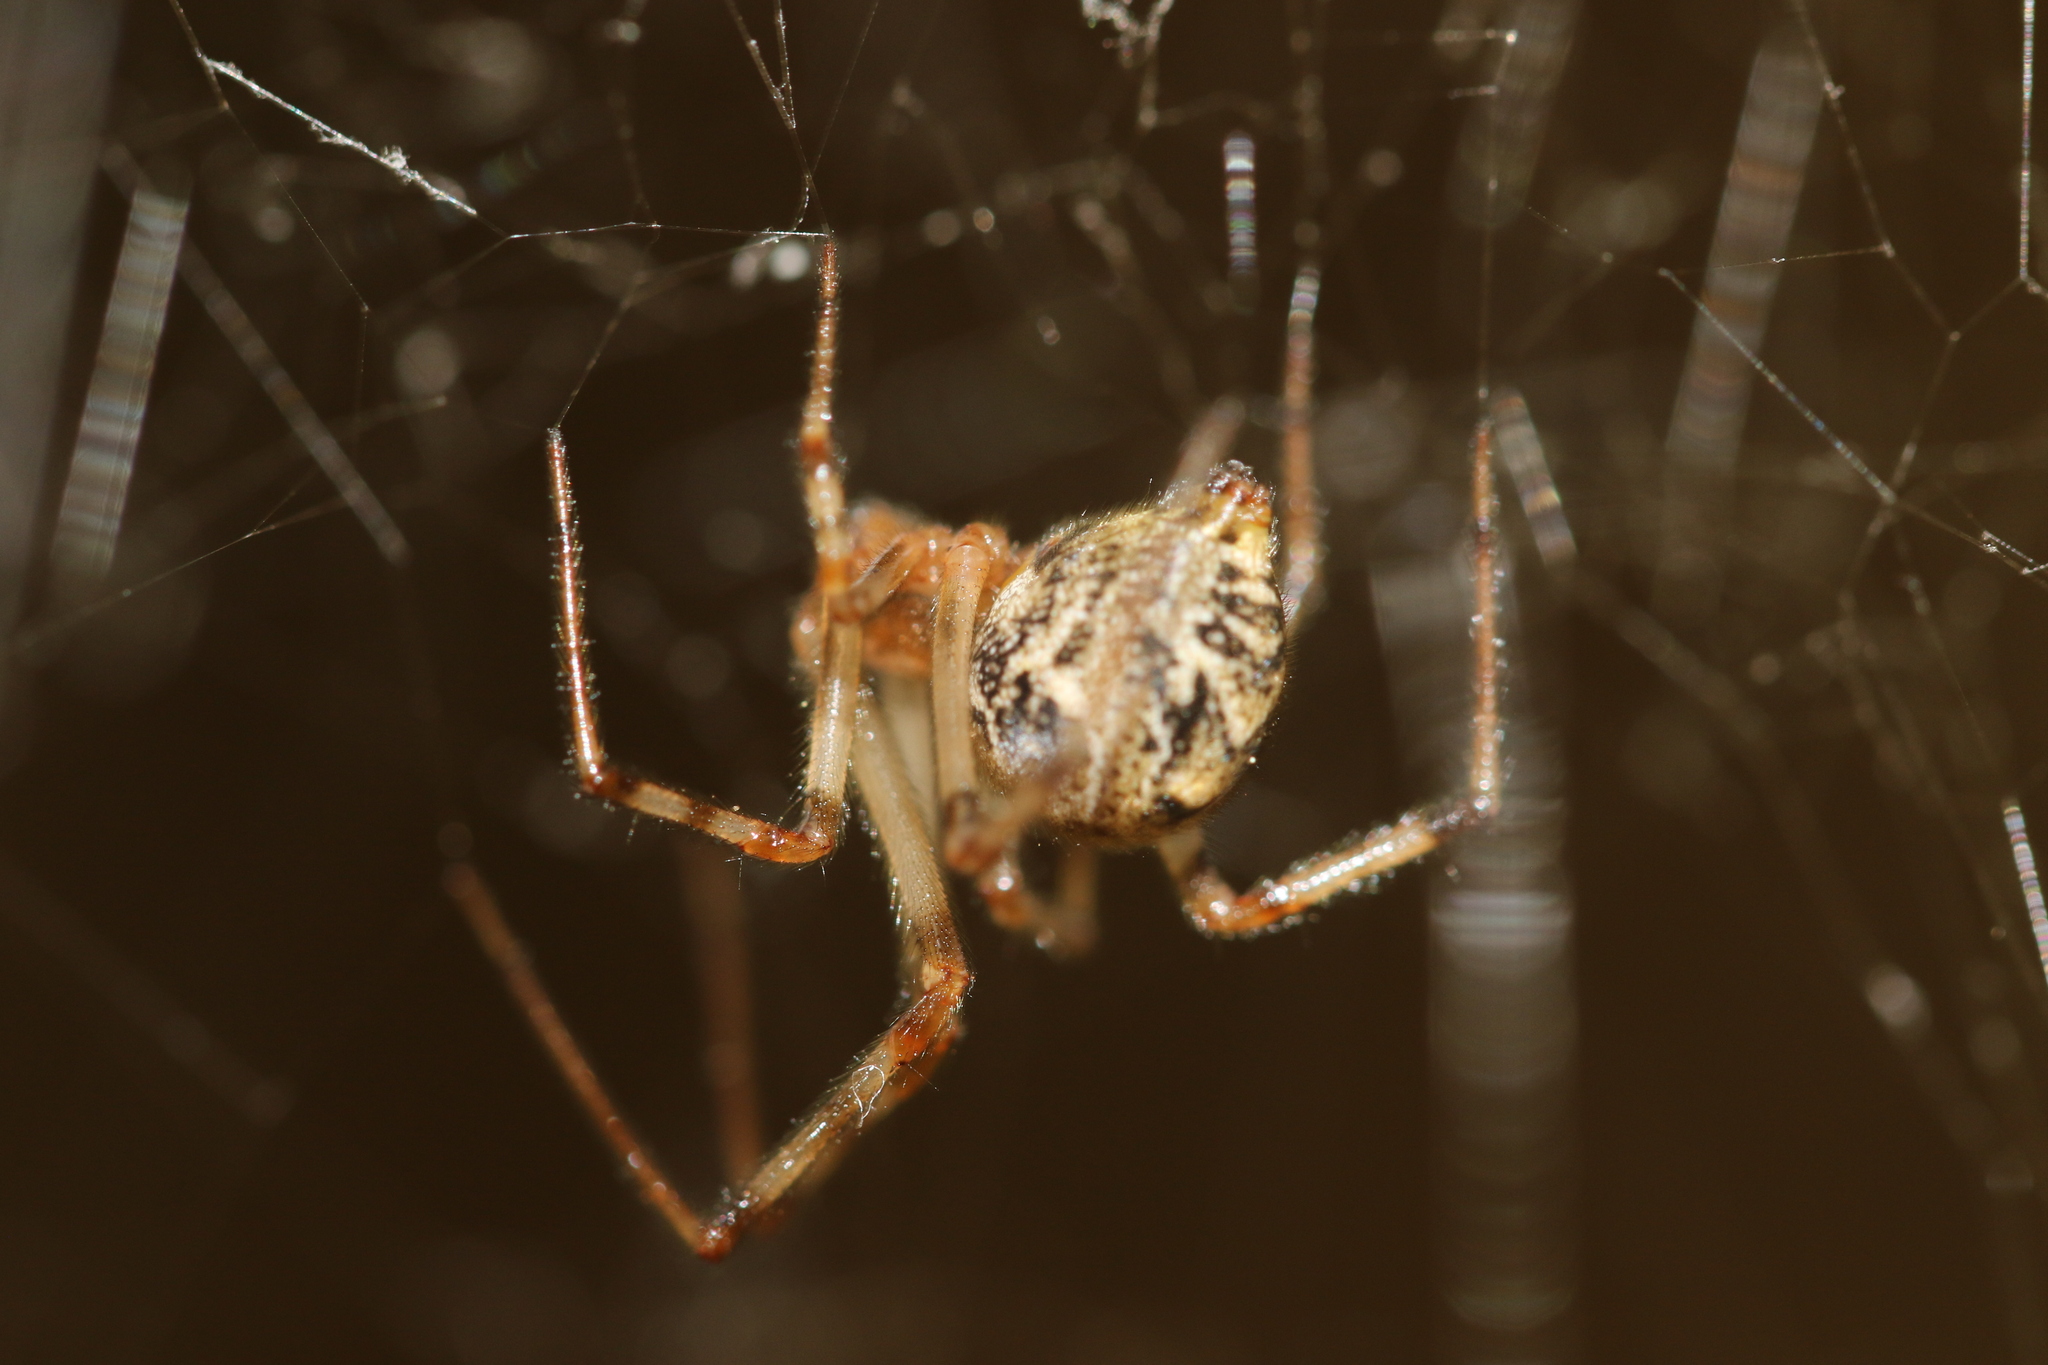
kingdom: Animalia
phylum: Arthropoda
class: Arachnida
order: Araneae
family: Theridiidae
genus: Parasteatoda
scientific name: Parasteatoda tepidariorum
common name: Common house spider
